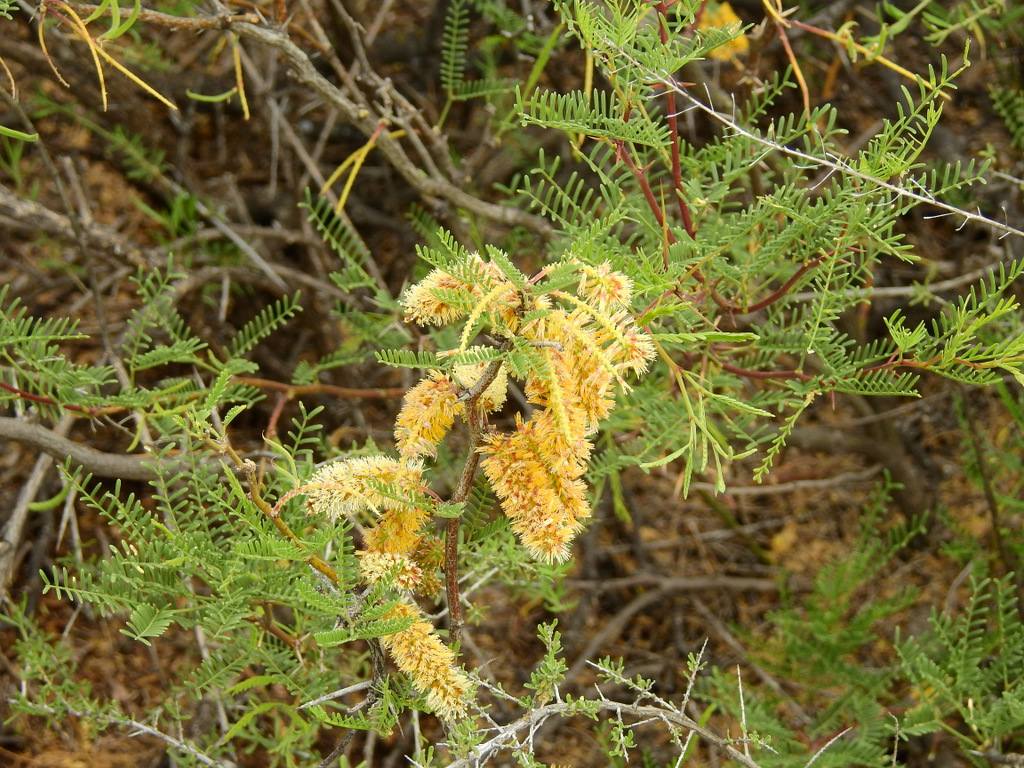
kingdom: Plantae
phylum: Tracheophyta
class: Magnoliopsida
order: Fabales
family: Fabaceae
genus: Prosopis
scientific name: Prosopis flexuosa
